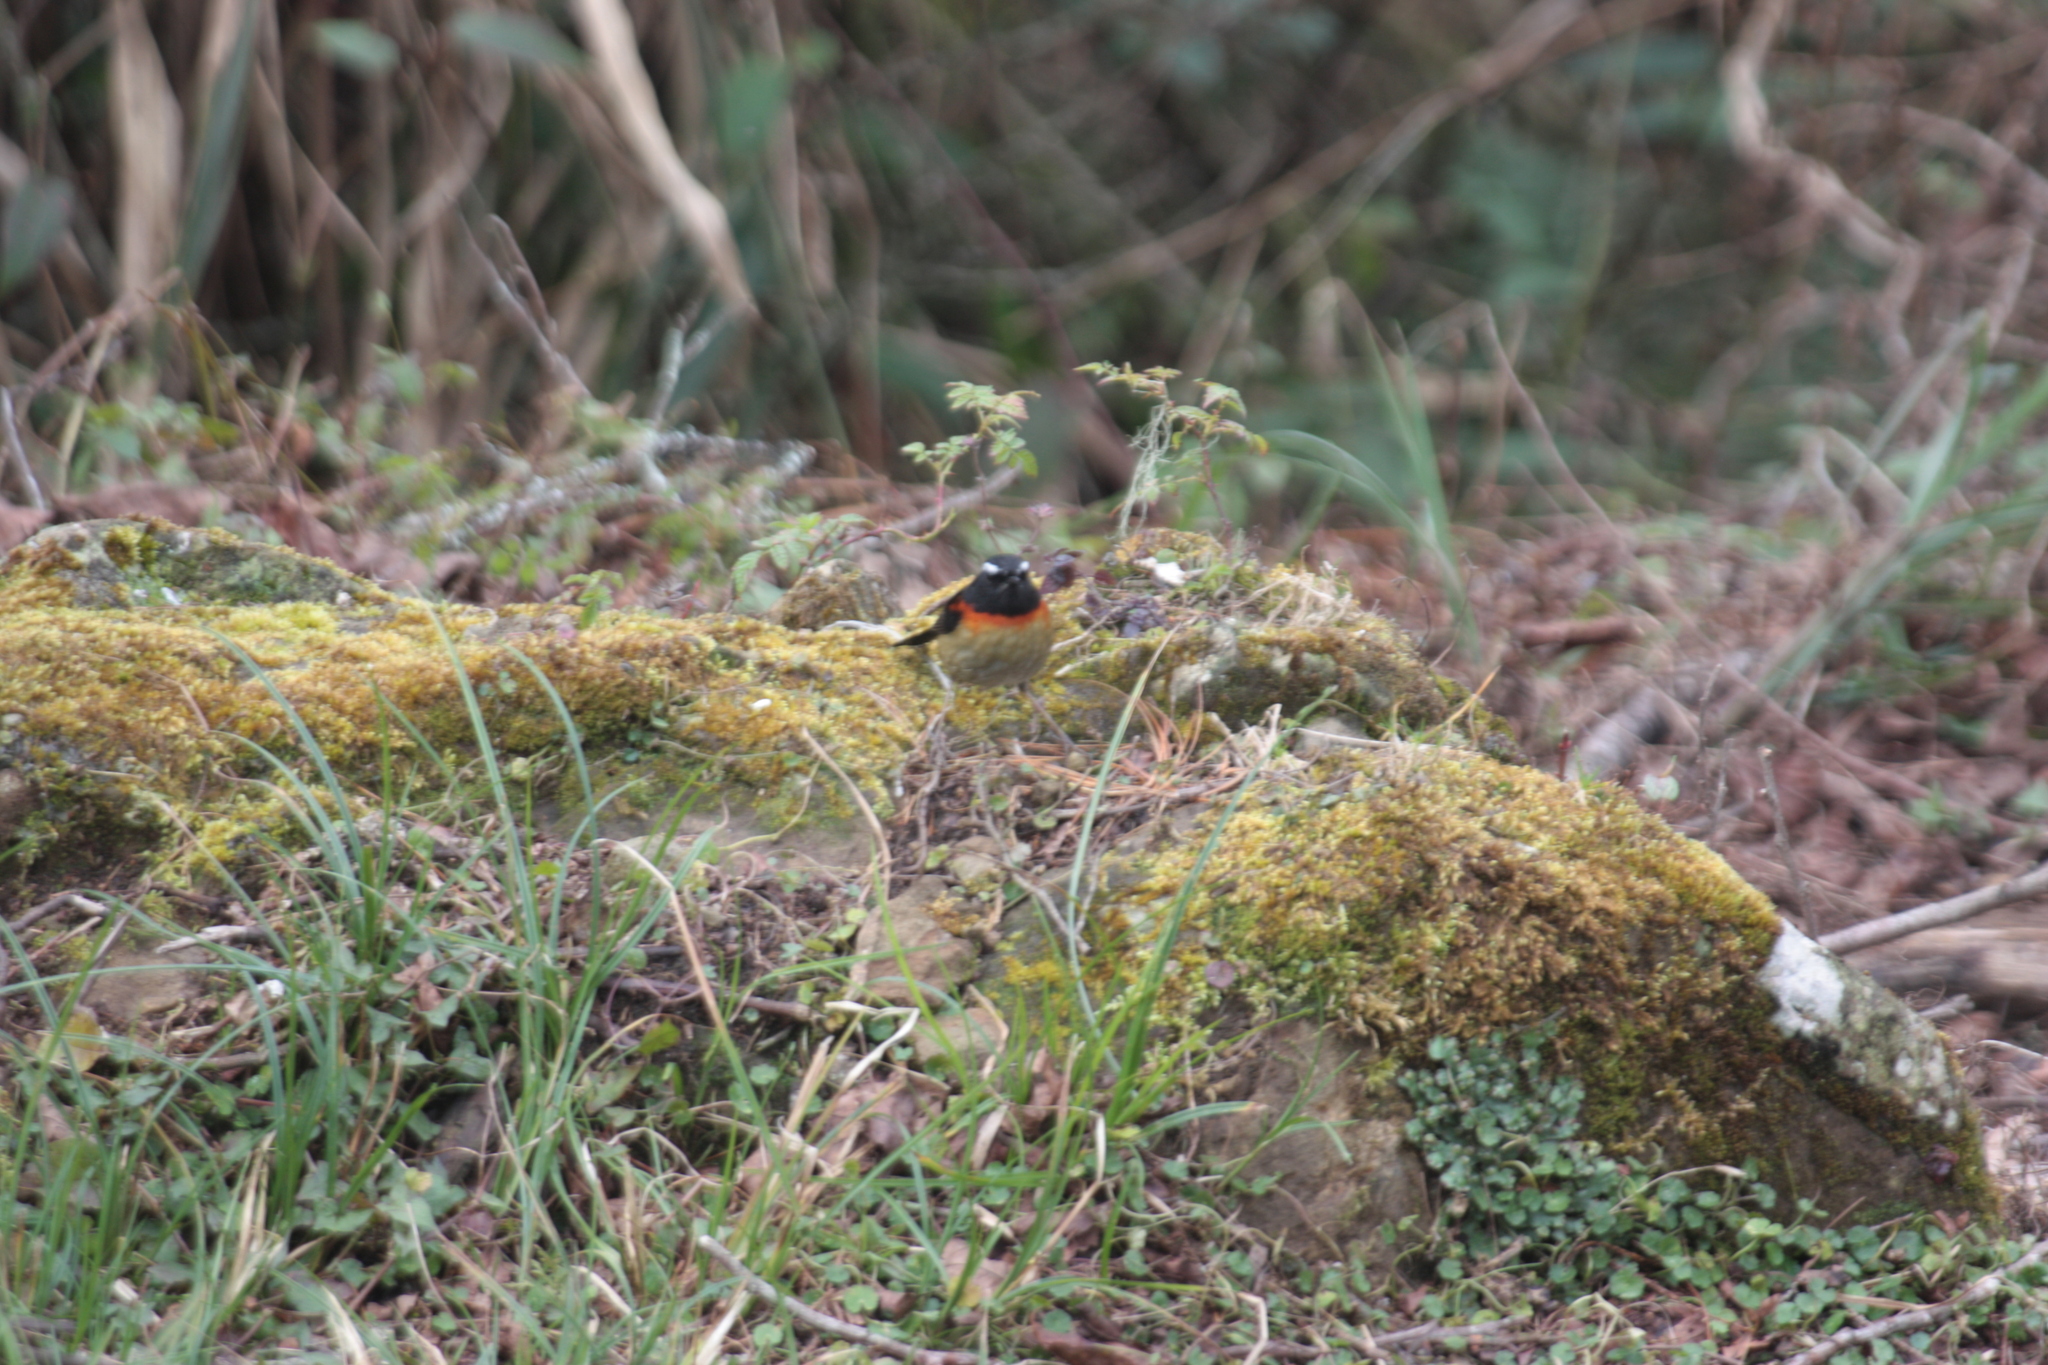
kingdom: Animalia
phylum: Chordata
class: Aves
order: Passeriformes
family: Muscicapidae
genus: Tarsiger
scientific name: Tarsiger johnstoniae
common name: Collared bush robin
